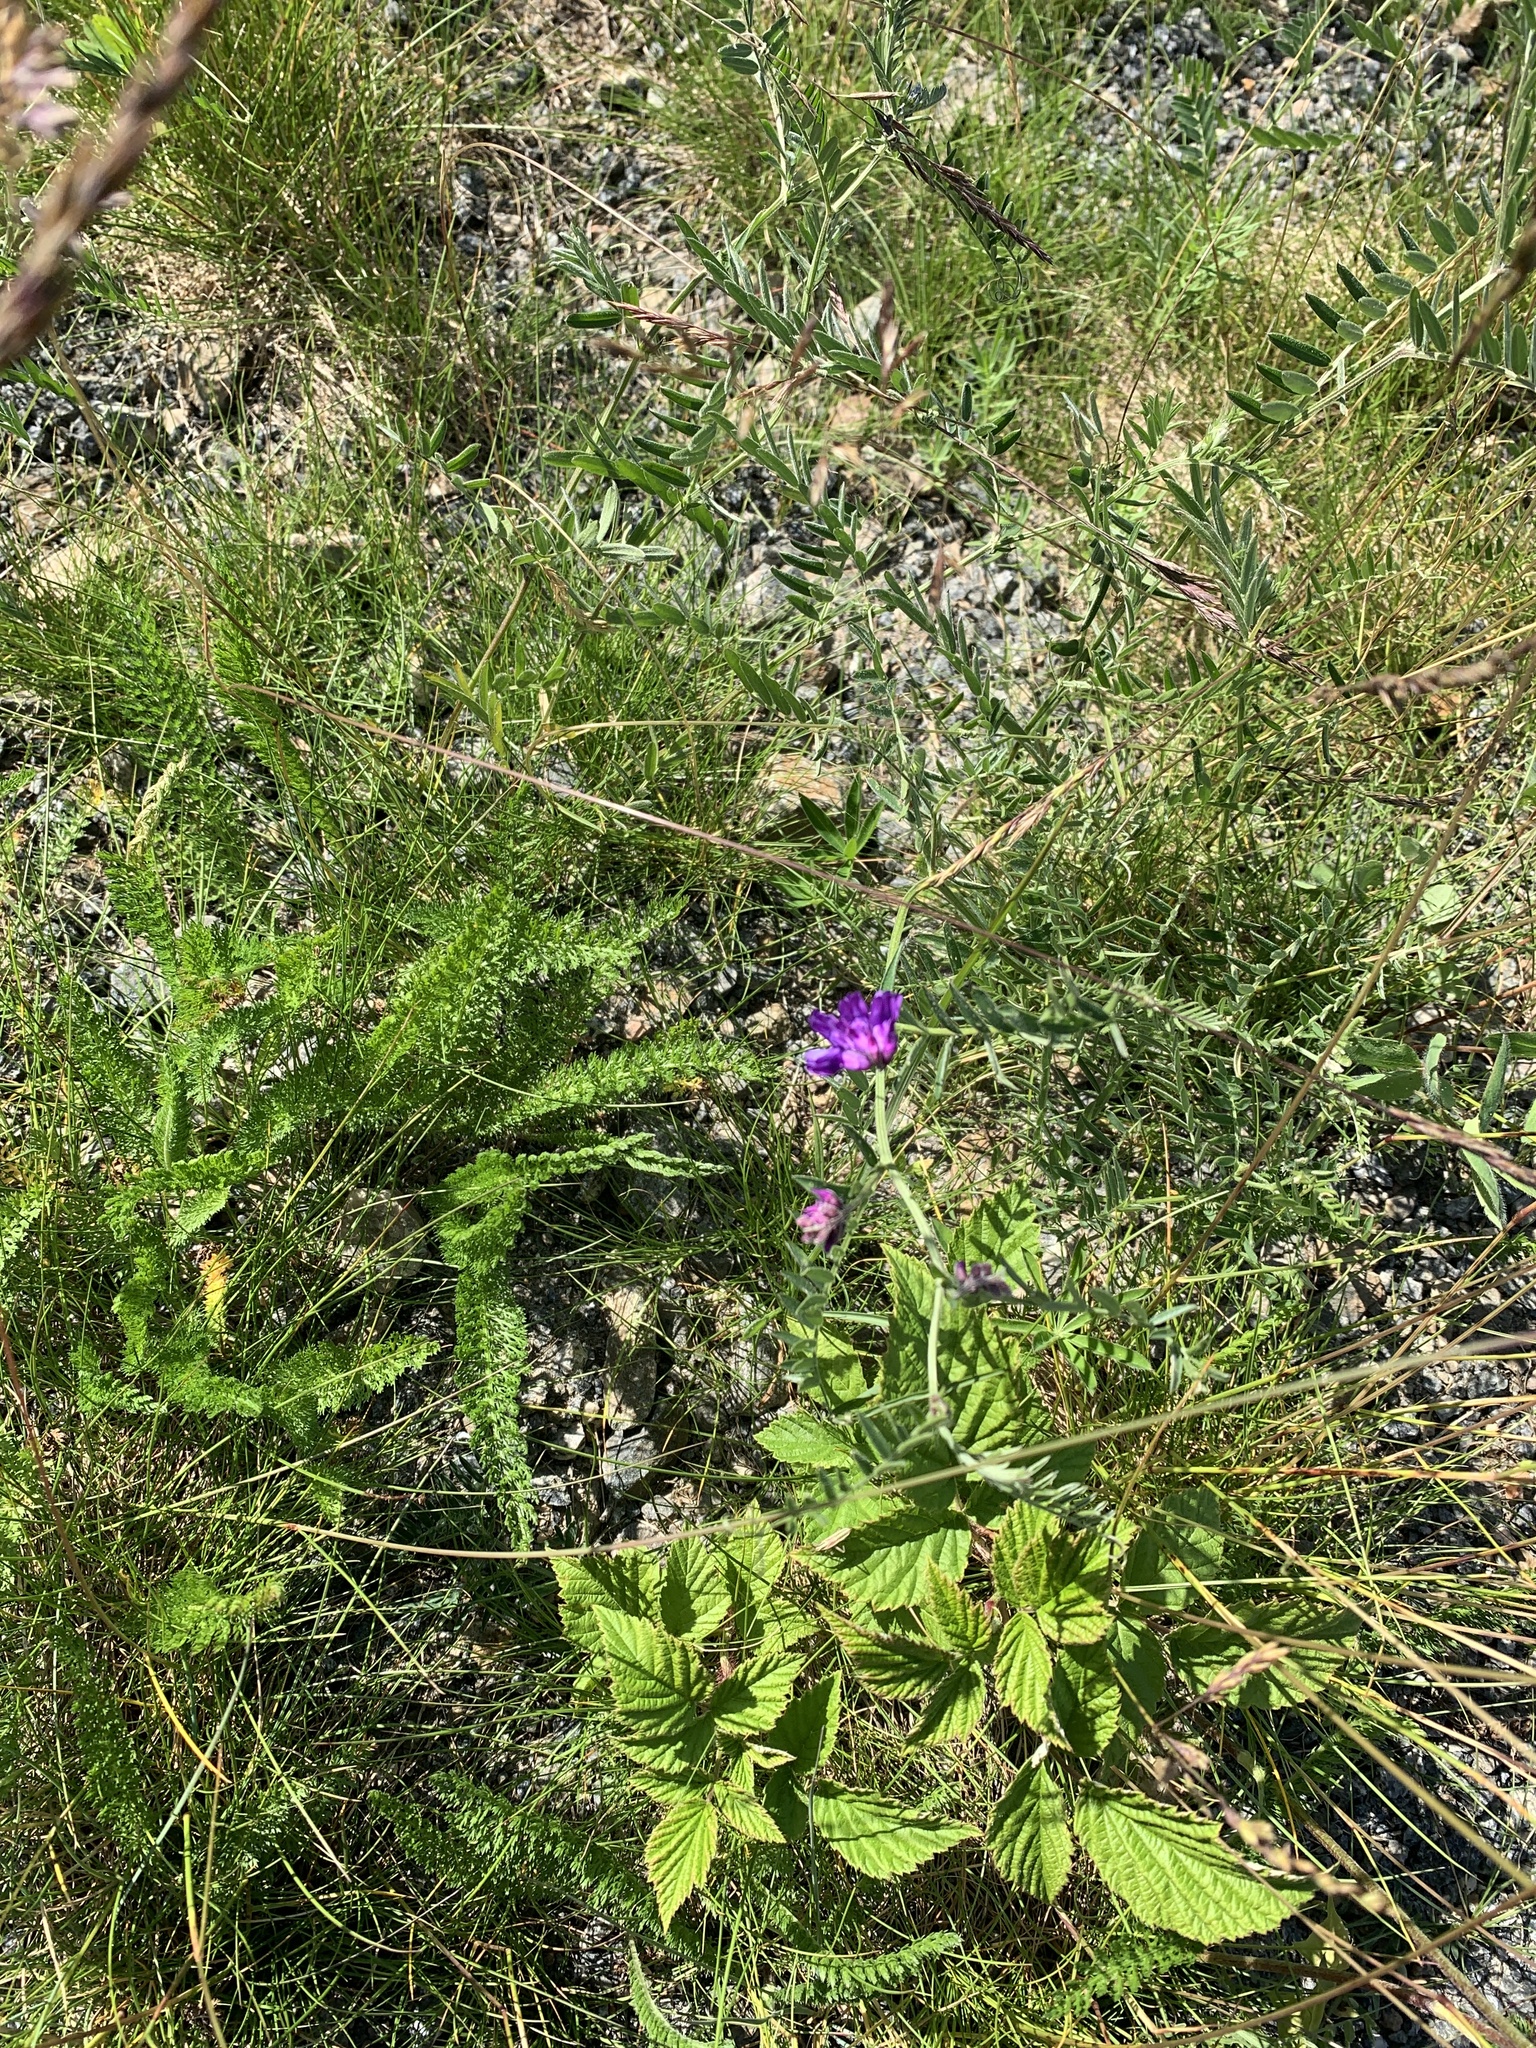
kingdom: Plantae
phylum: Tracheophyta
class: Magnoliopsida
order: Fabales
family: Fabaceae
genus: Vicia
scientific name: Vicia cracca
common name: Bird vetch
